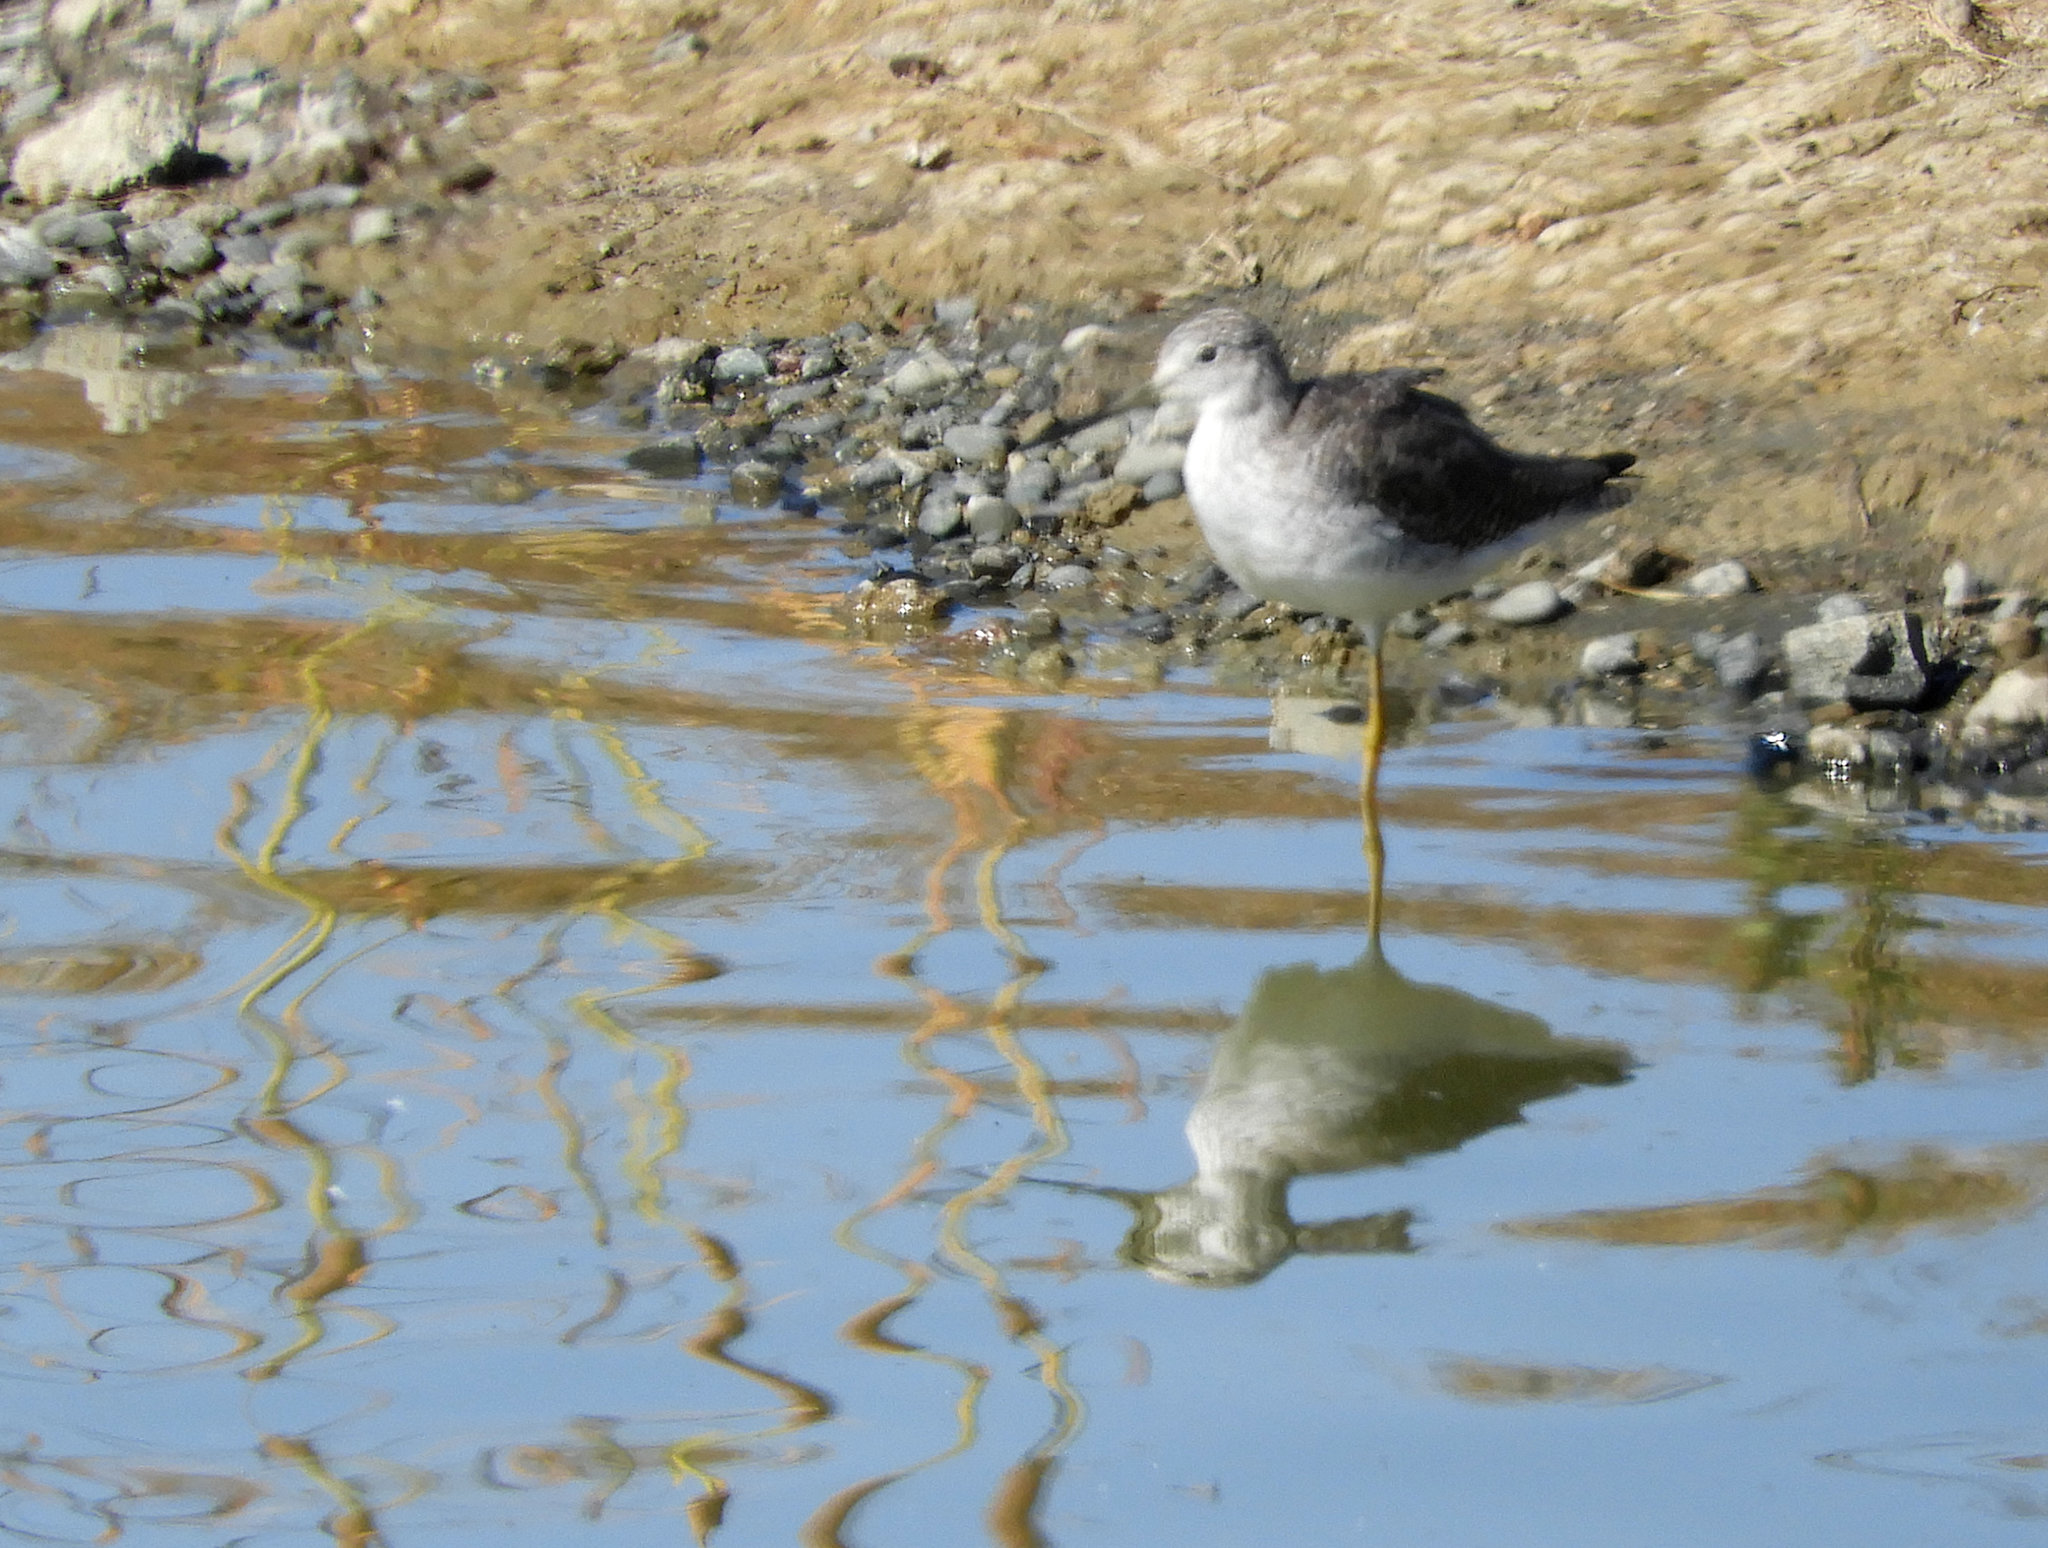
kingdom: Animalia
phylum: Chordata
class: Aves
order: Charadriiformes
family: Scolopacidae
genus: Tringa
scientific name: Tringa melanoleuca
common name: Greater yellowlegs
